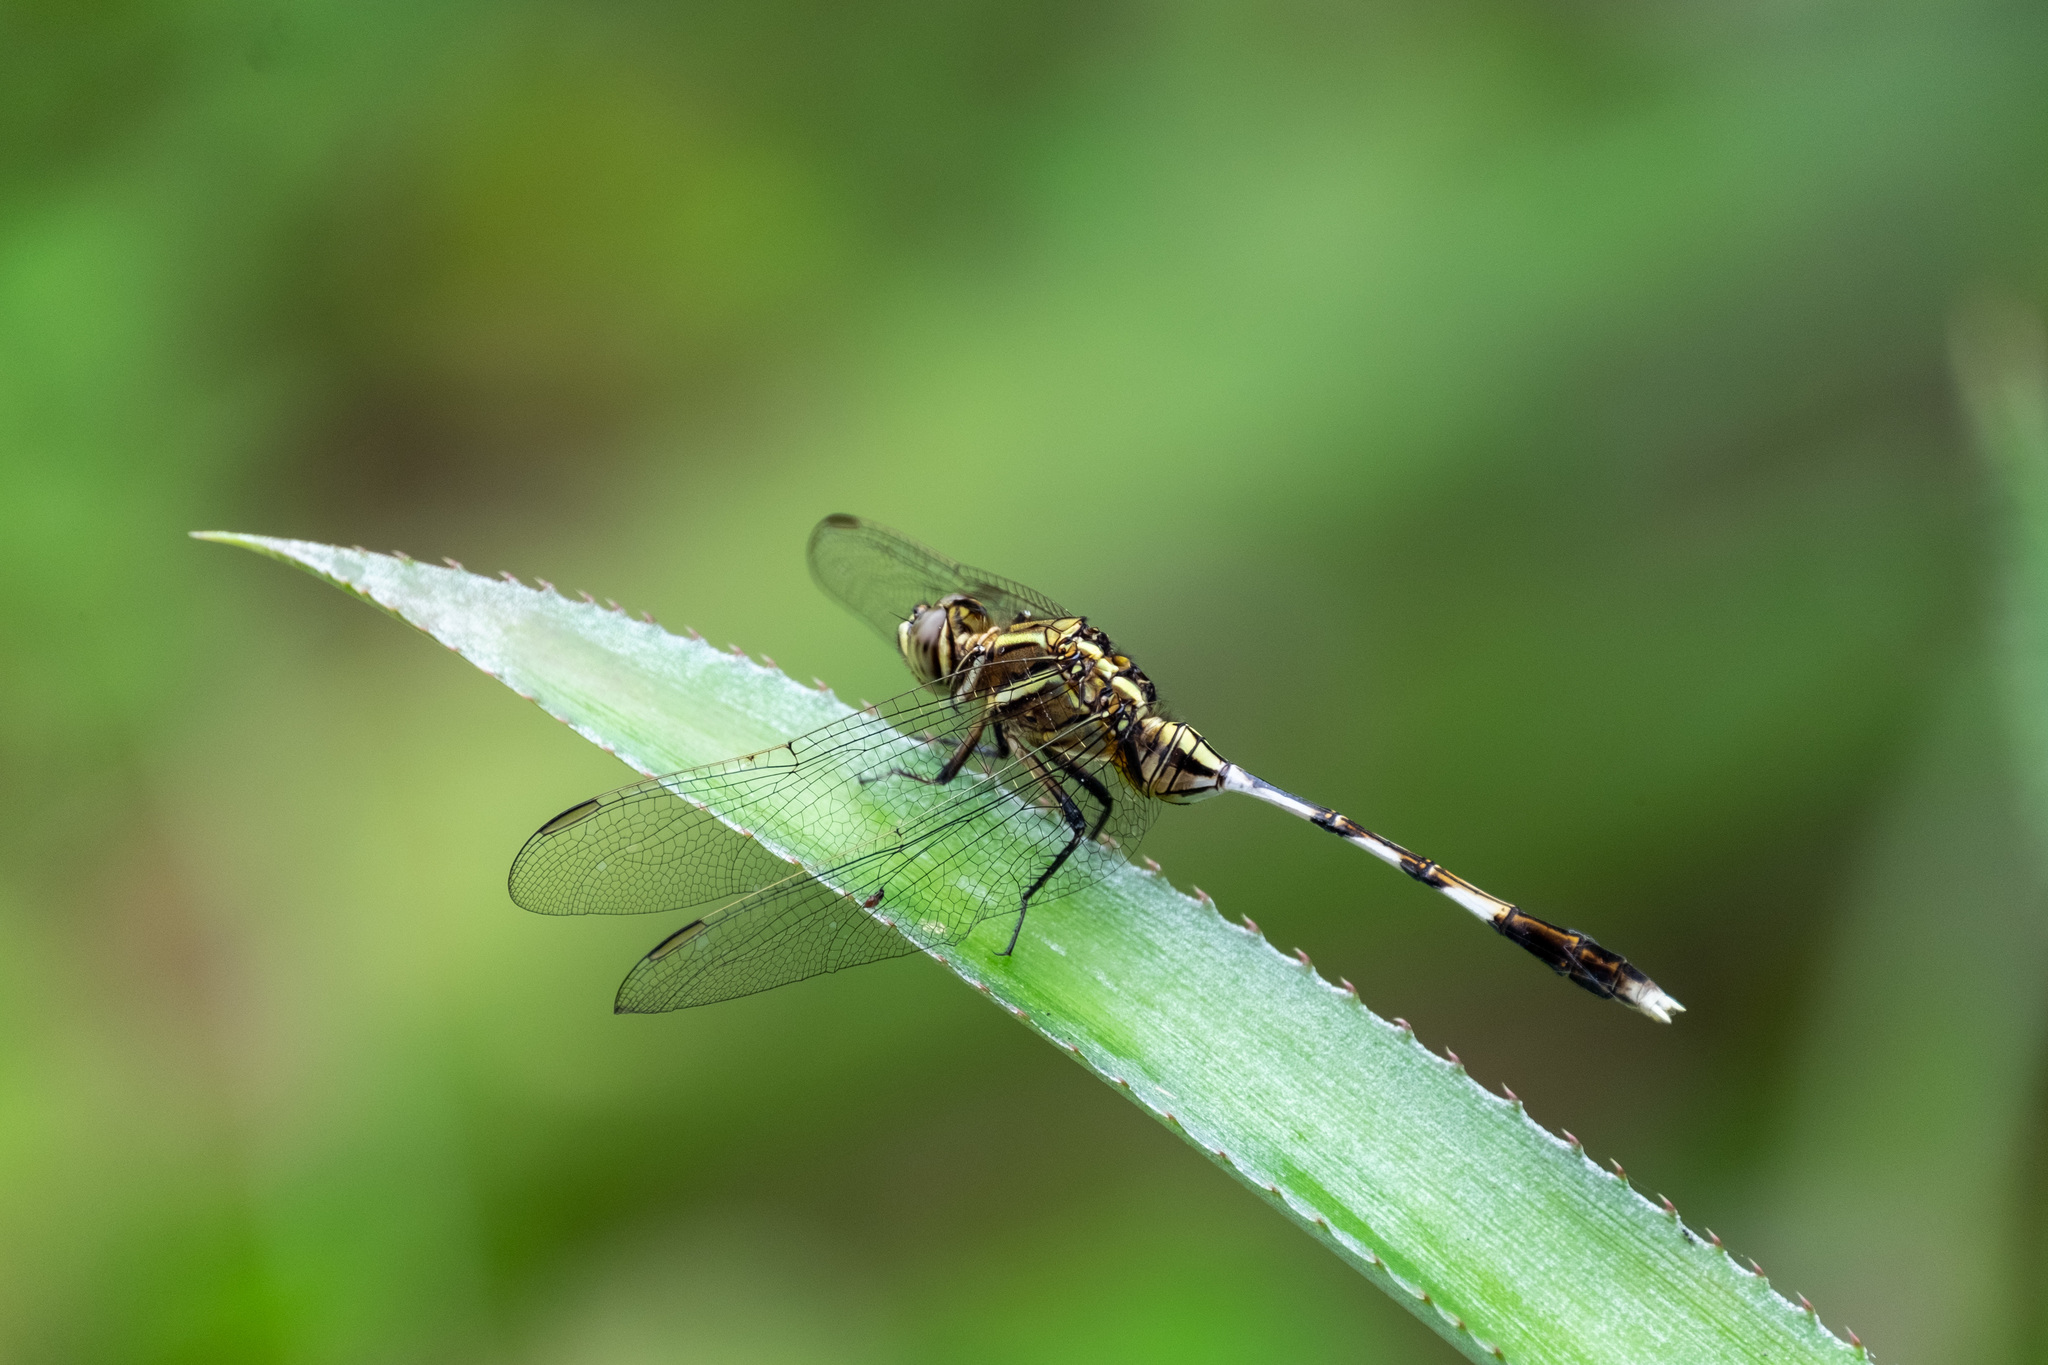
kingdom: Animalia
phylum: Arthropoda
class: Insecta
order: Odonata
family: Libellulidae
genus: Orthetrum
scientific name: Orthetrum sabina
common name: Slender skimmer
